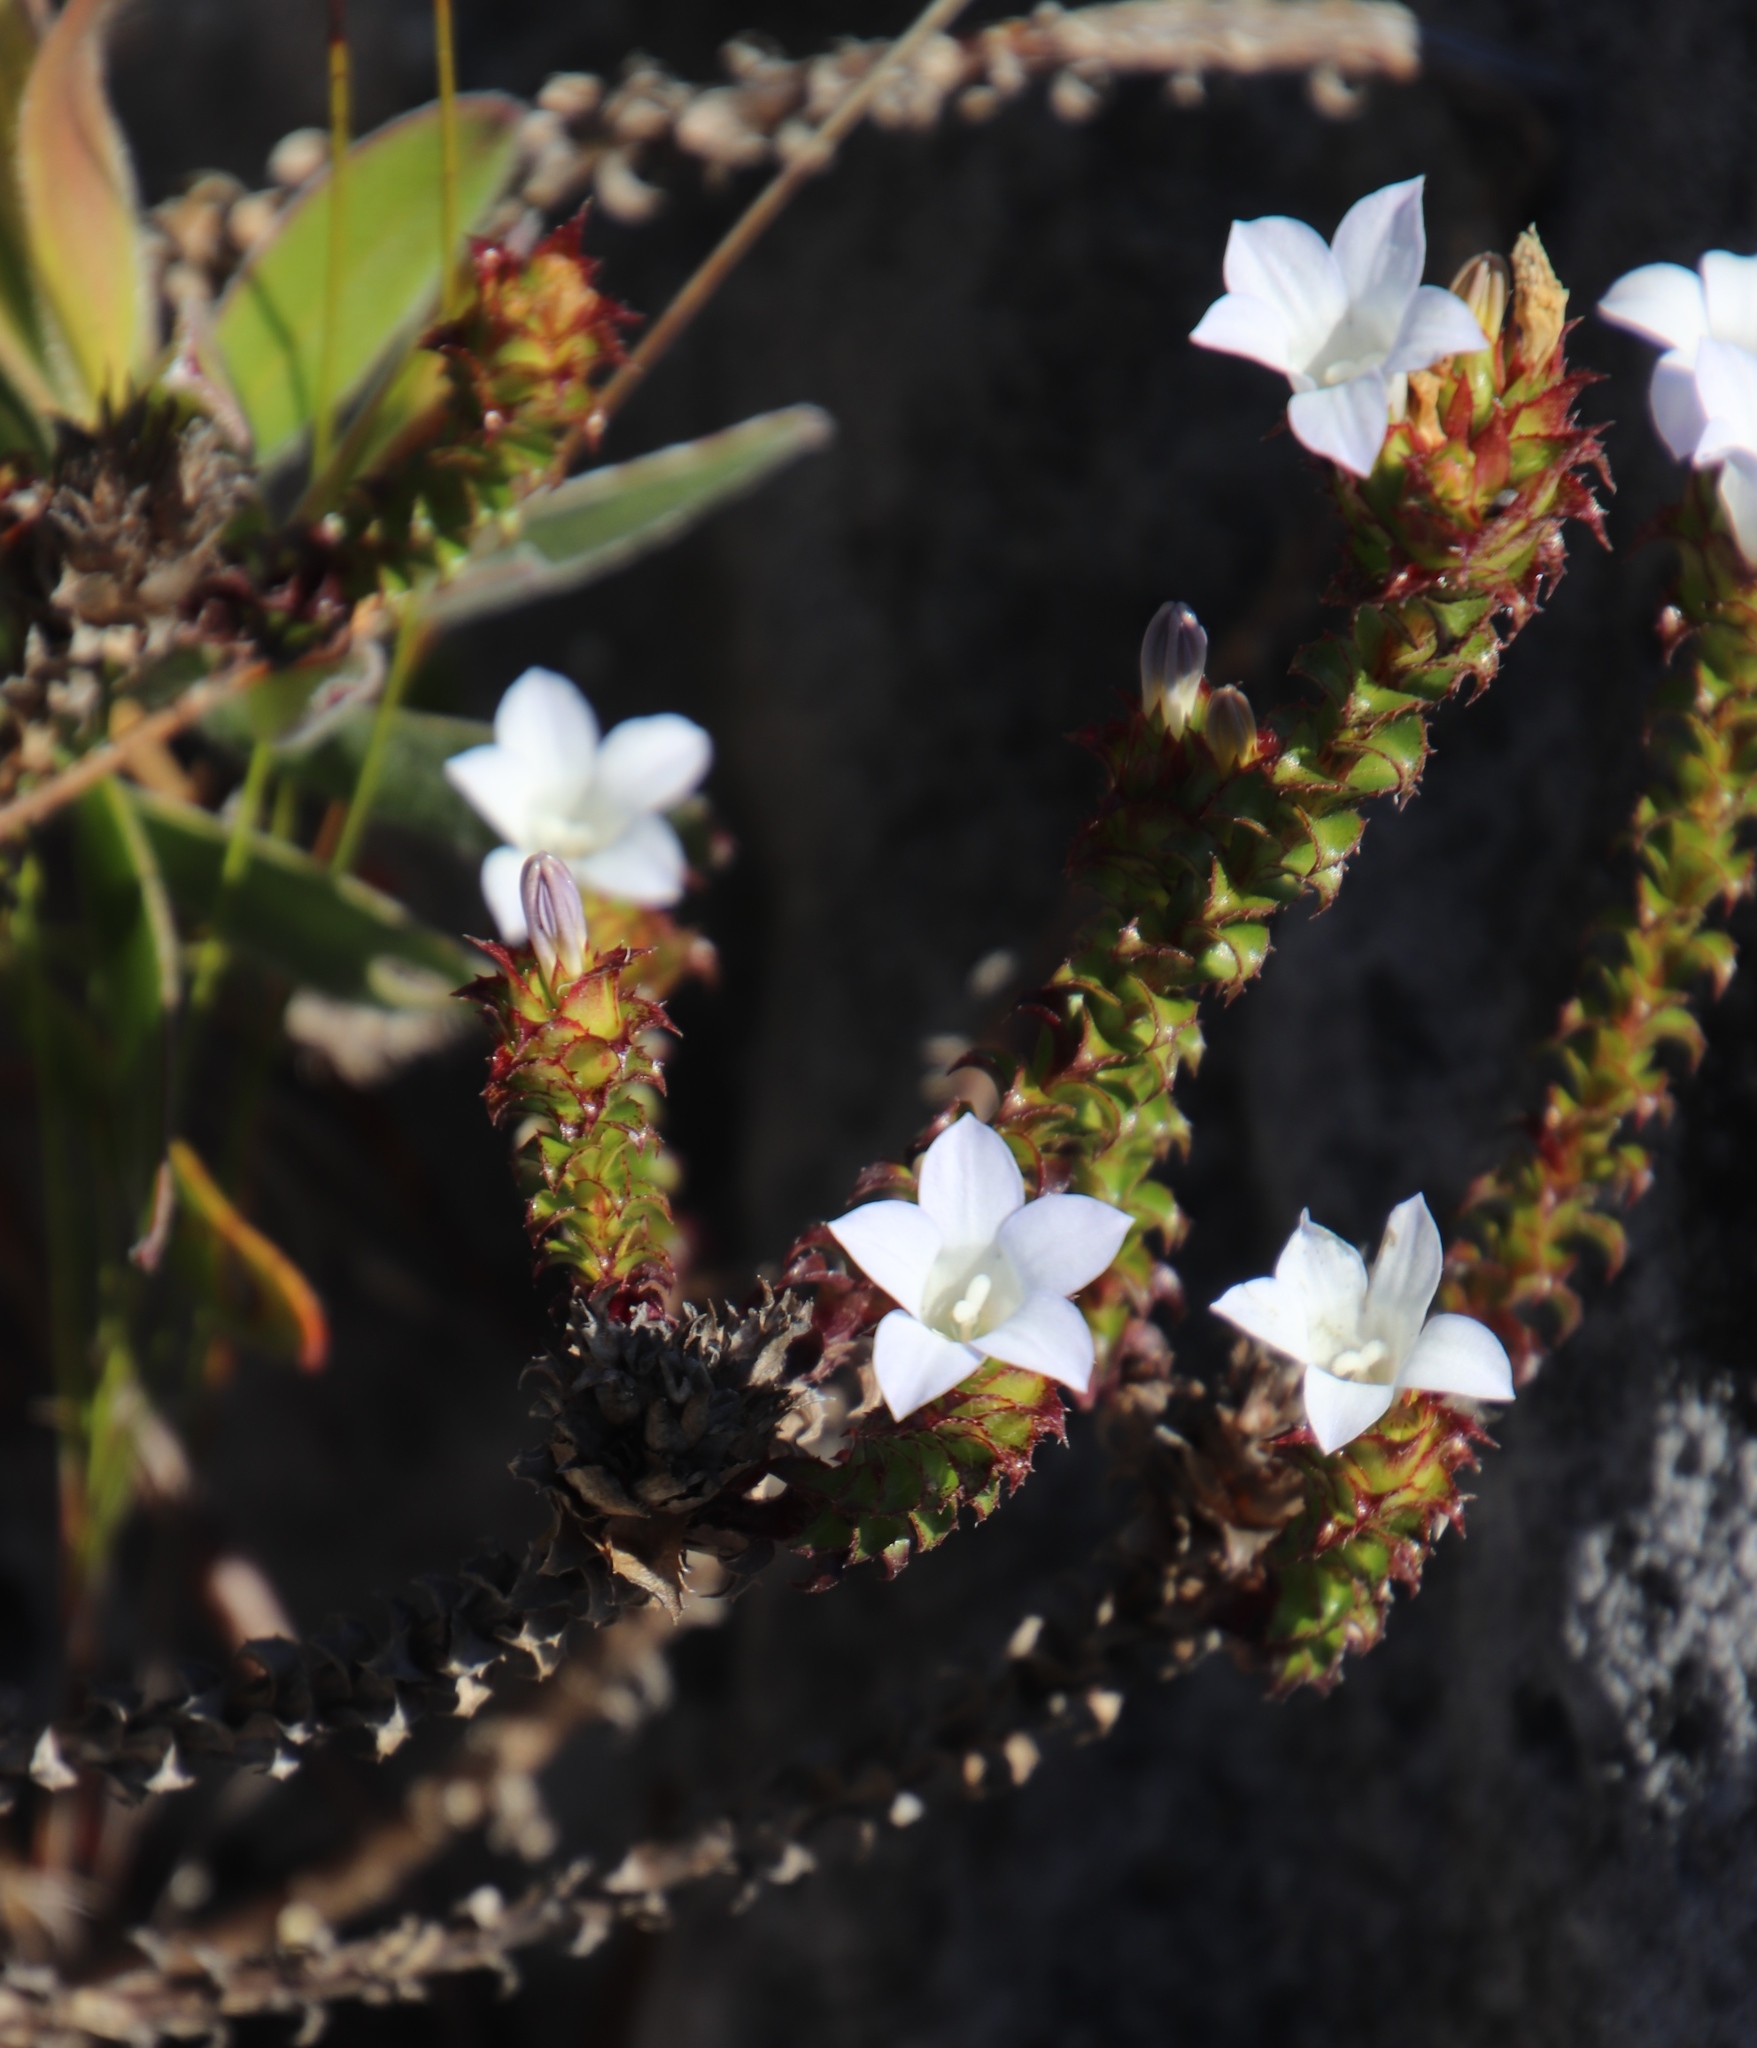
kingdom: Plantae
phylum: Tracheophyta
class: Magnoliopsida
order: Asterales
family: Campanulaceae
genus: Roella
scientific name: Roella amplexicaulis
